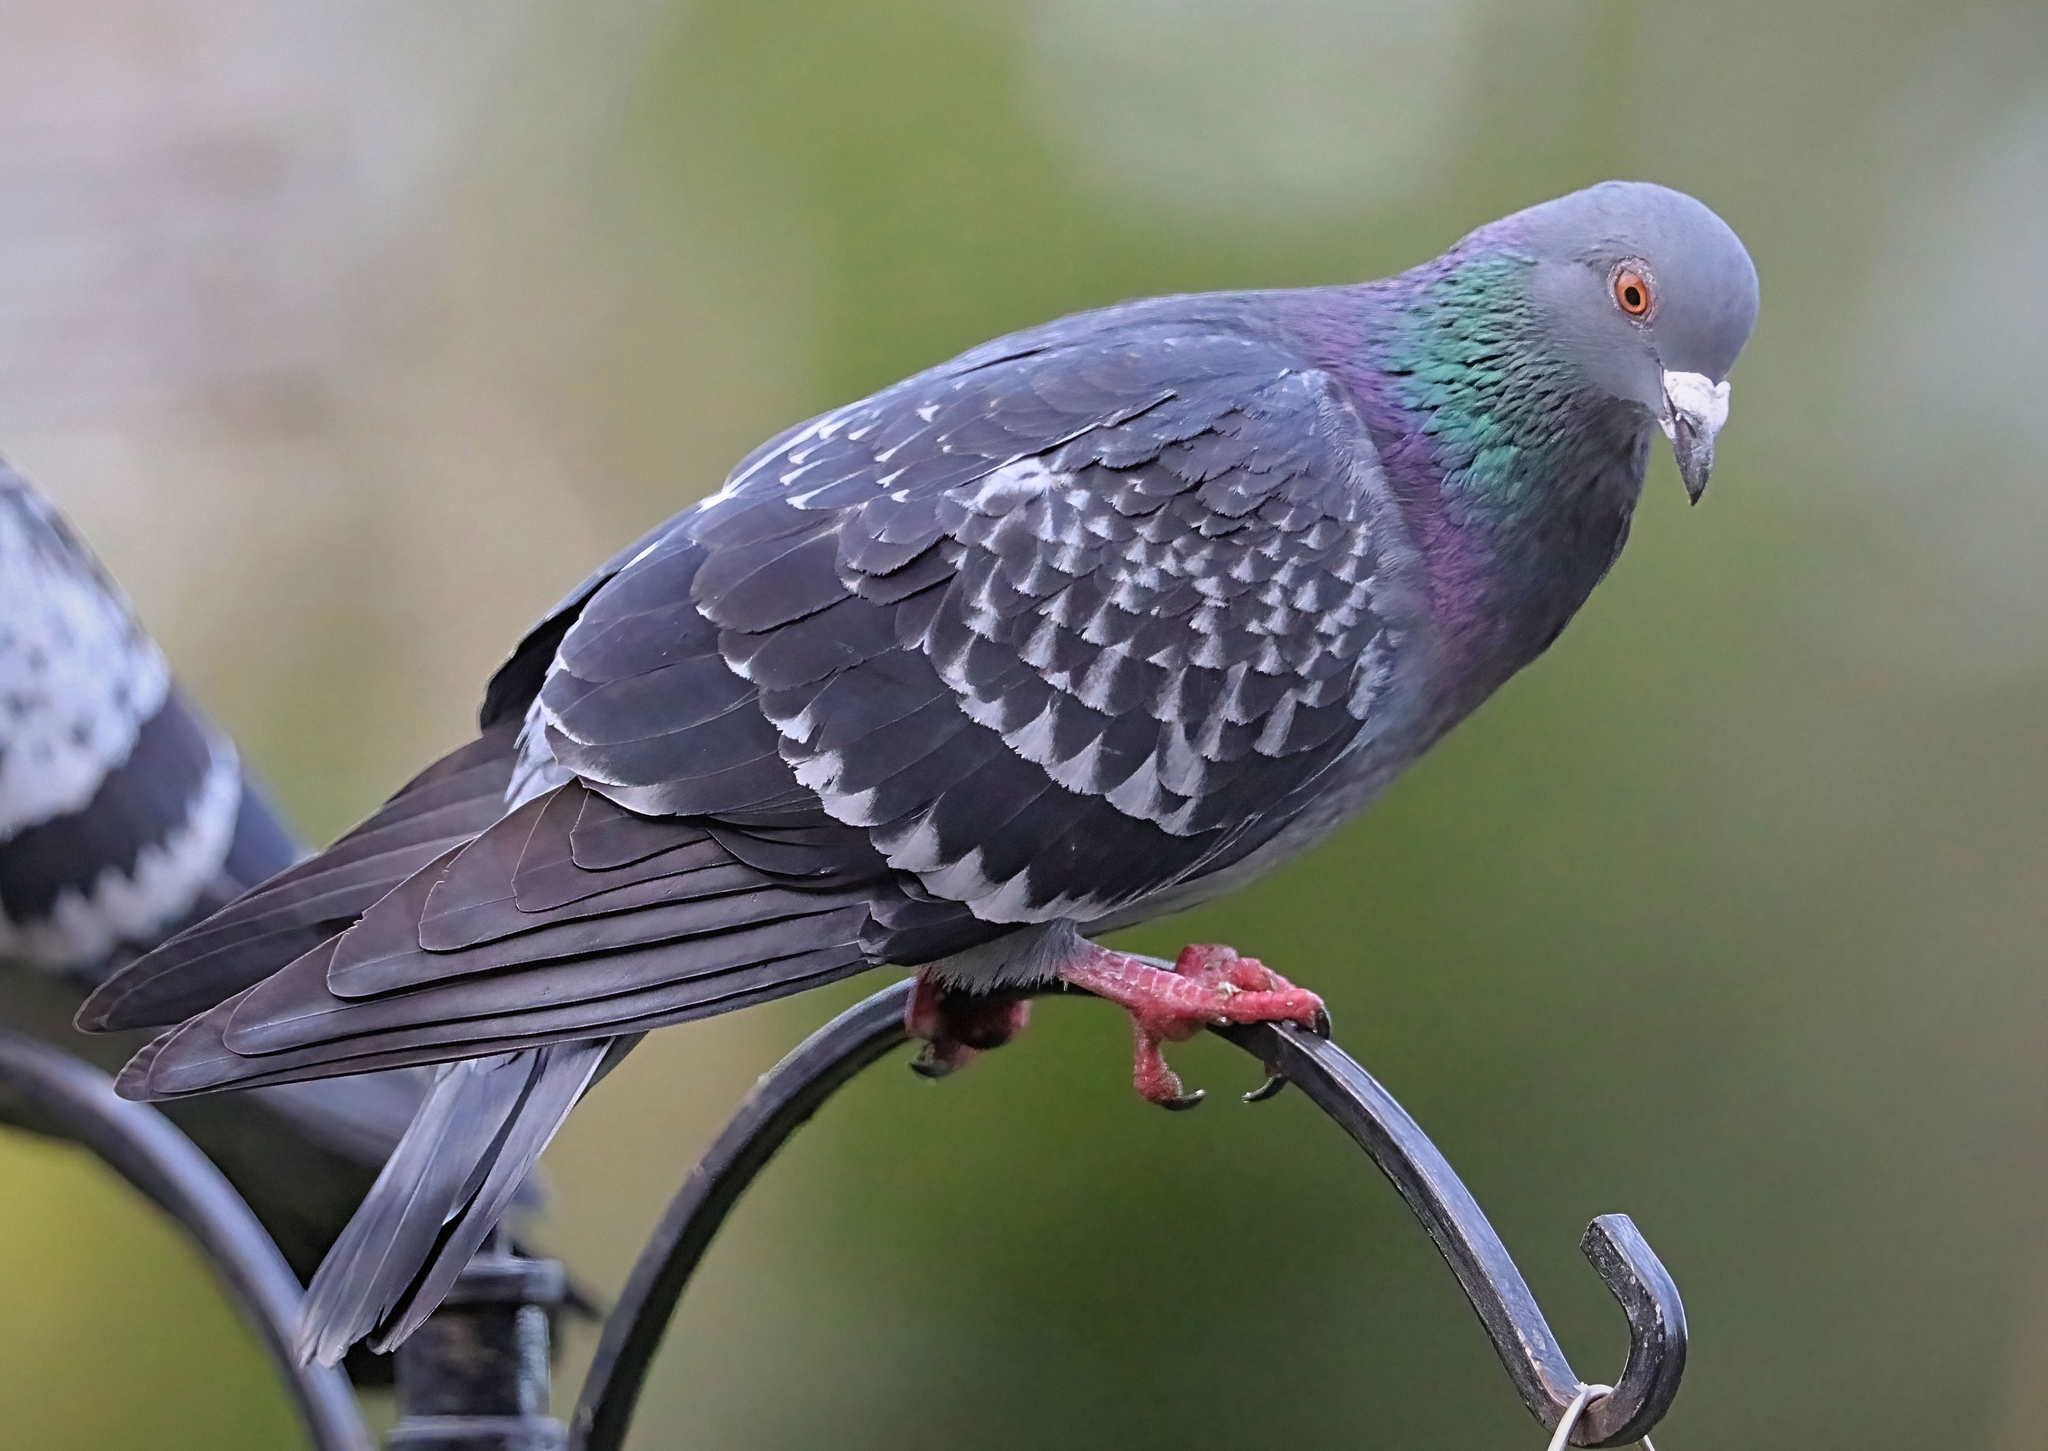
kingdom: Animalia
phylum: Chordata
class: Aves
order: Columbiformes
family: Columbidae
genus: Columba
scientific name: Columba livia
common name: Rock pigeon
